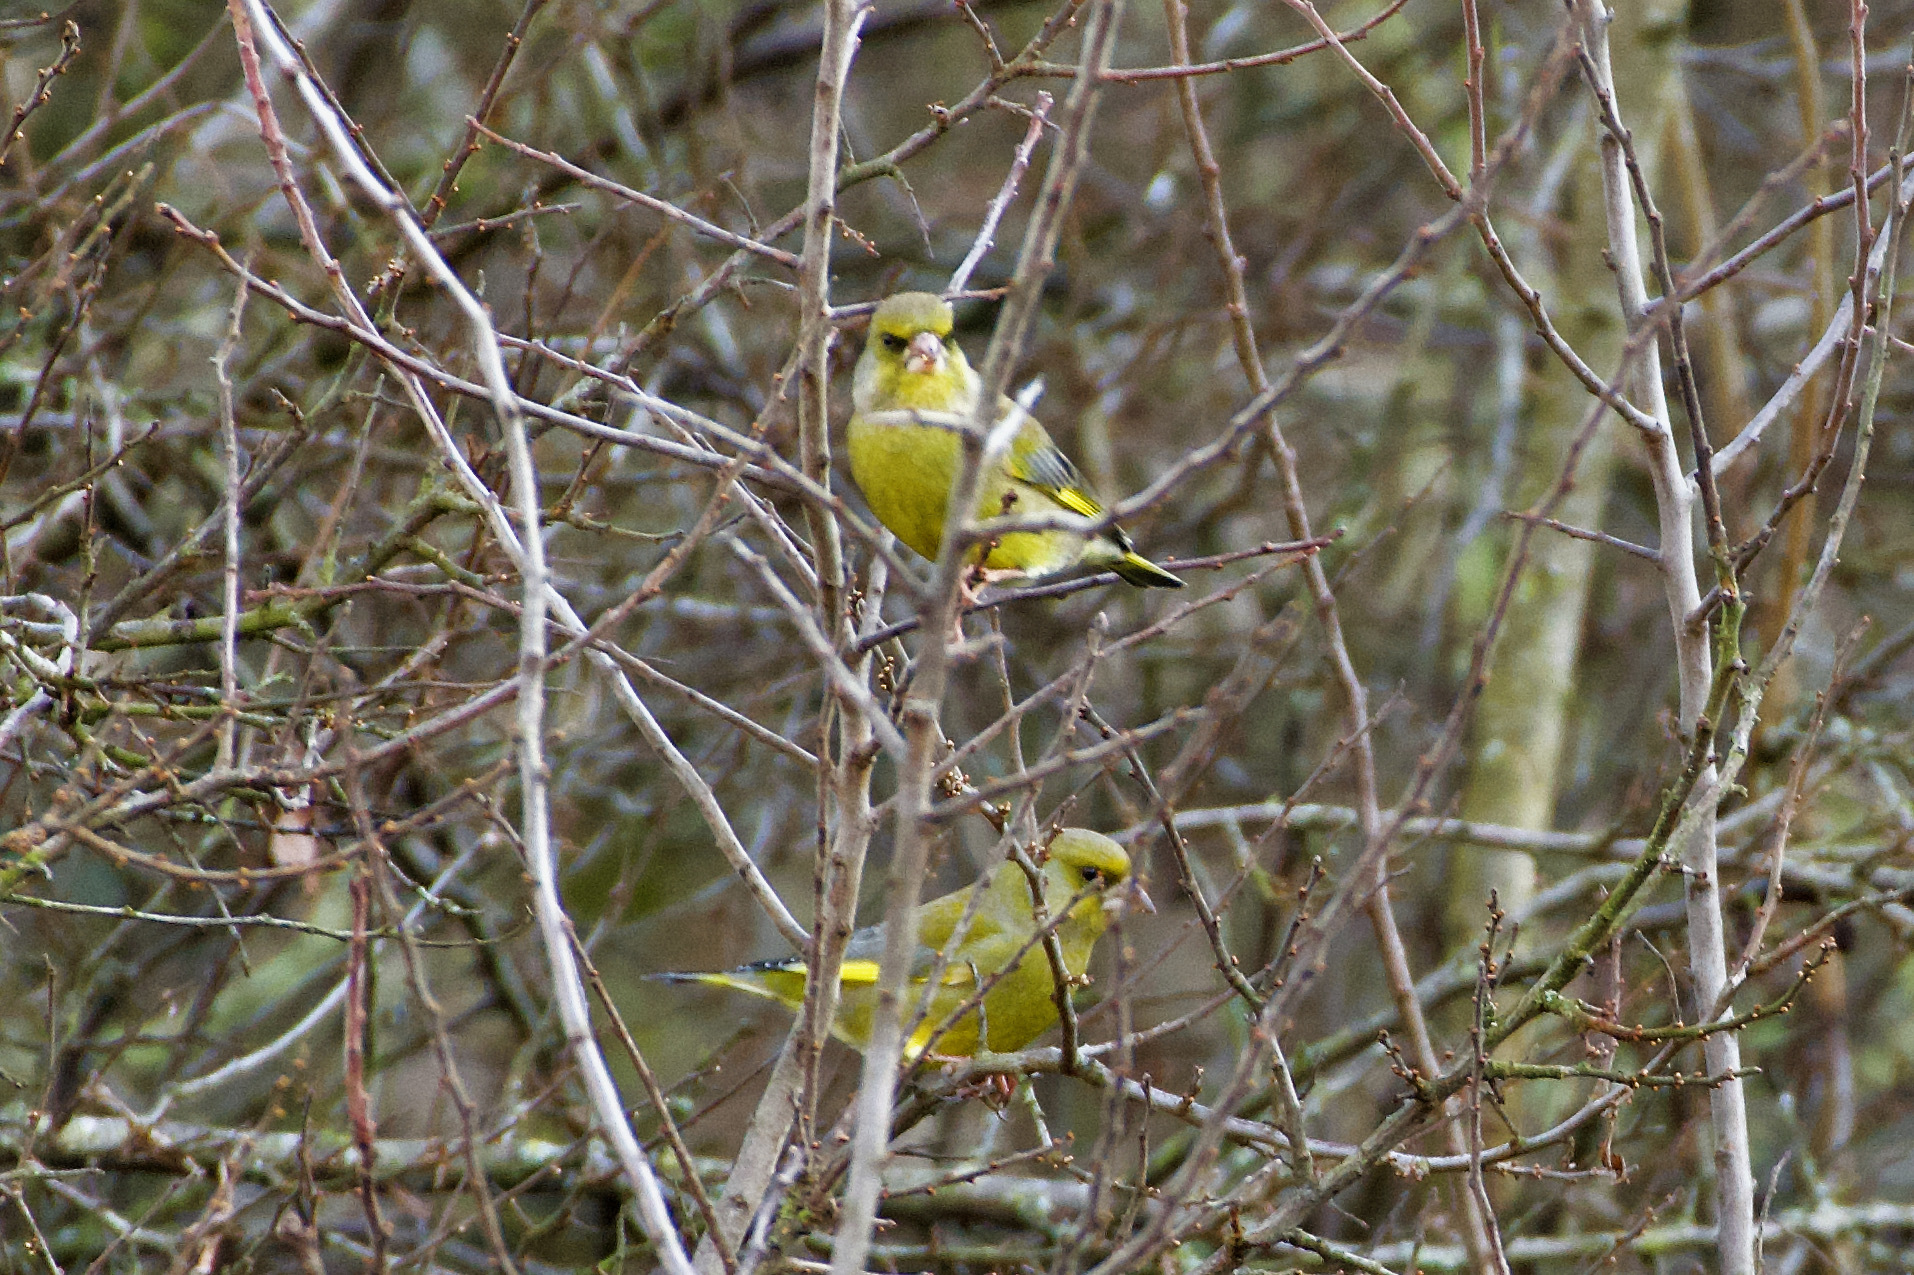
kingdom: Plantae
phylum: Tracheophyta
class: Liliopsida
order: Poales
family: Poaceae
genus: Chloris
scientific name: Chloris chloris
